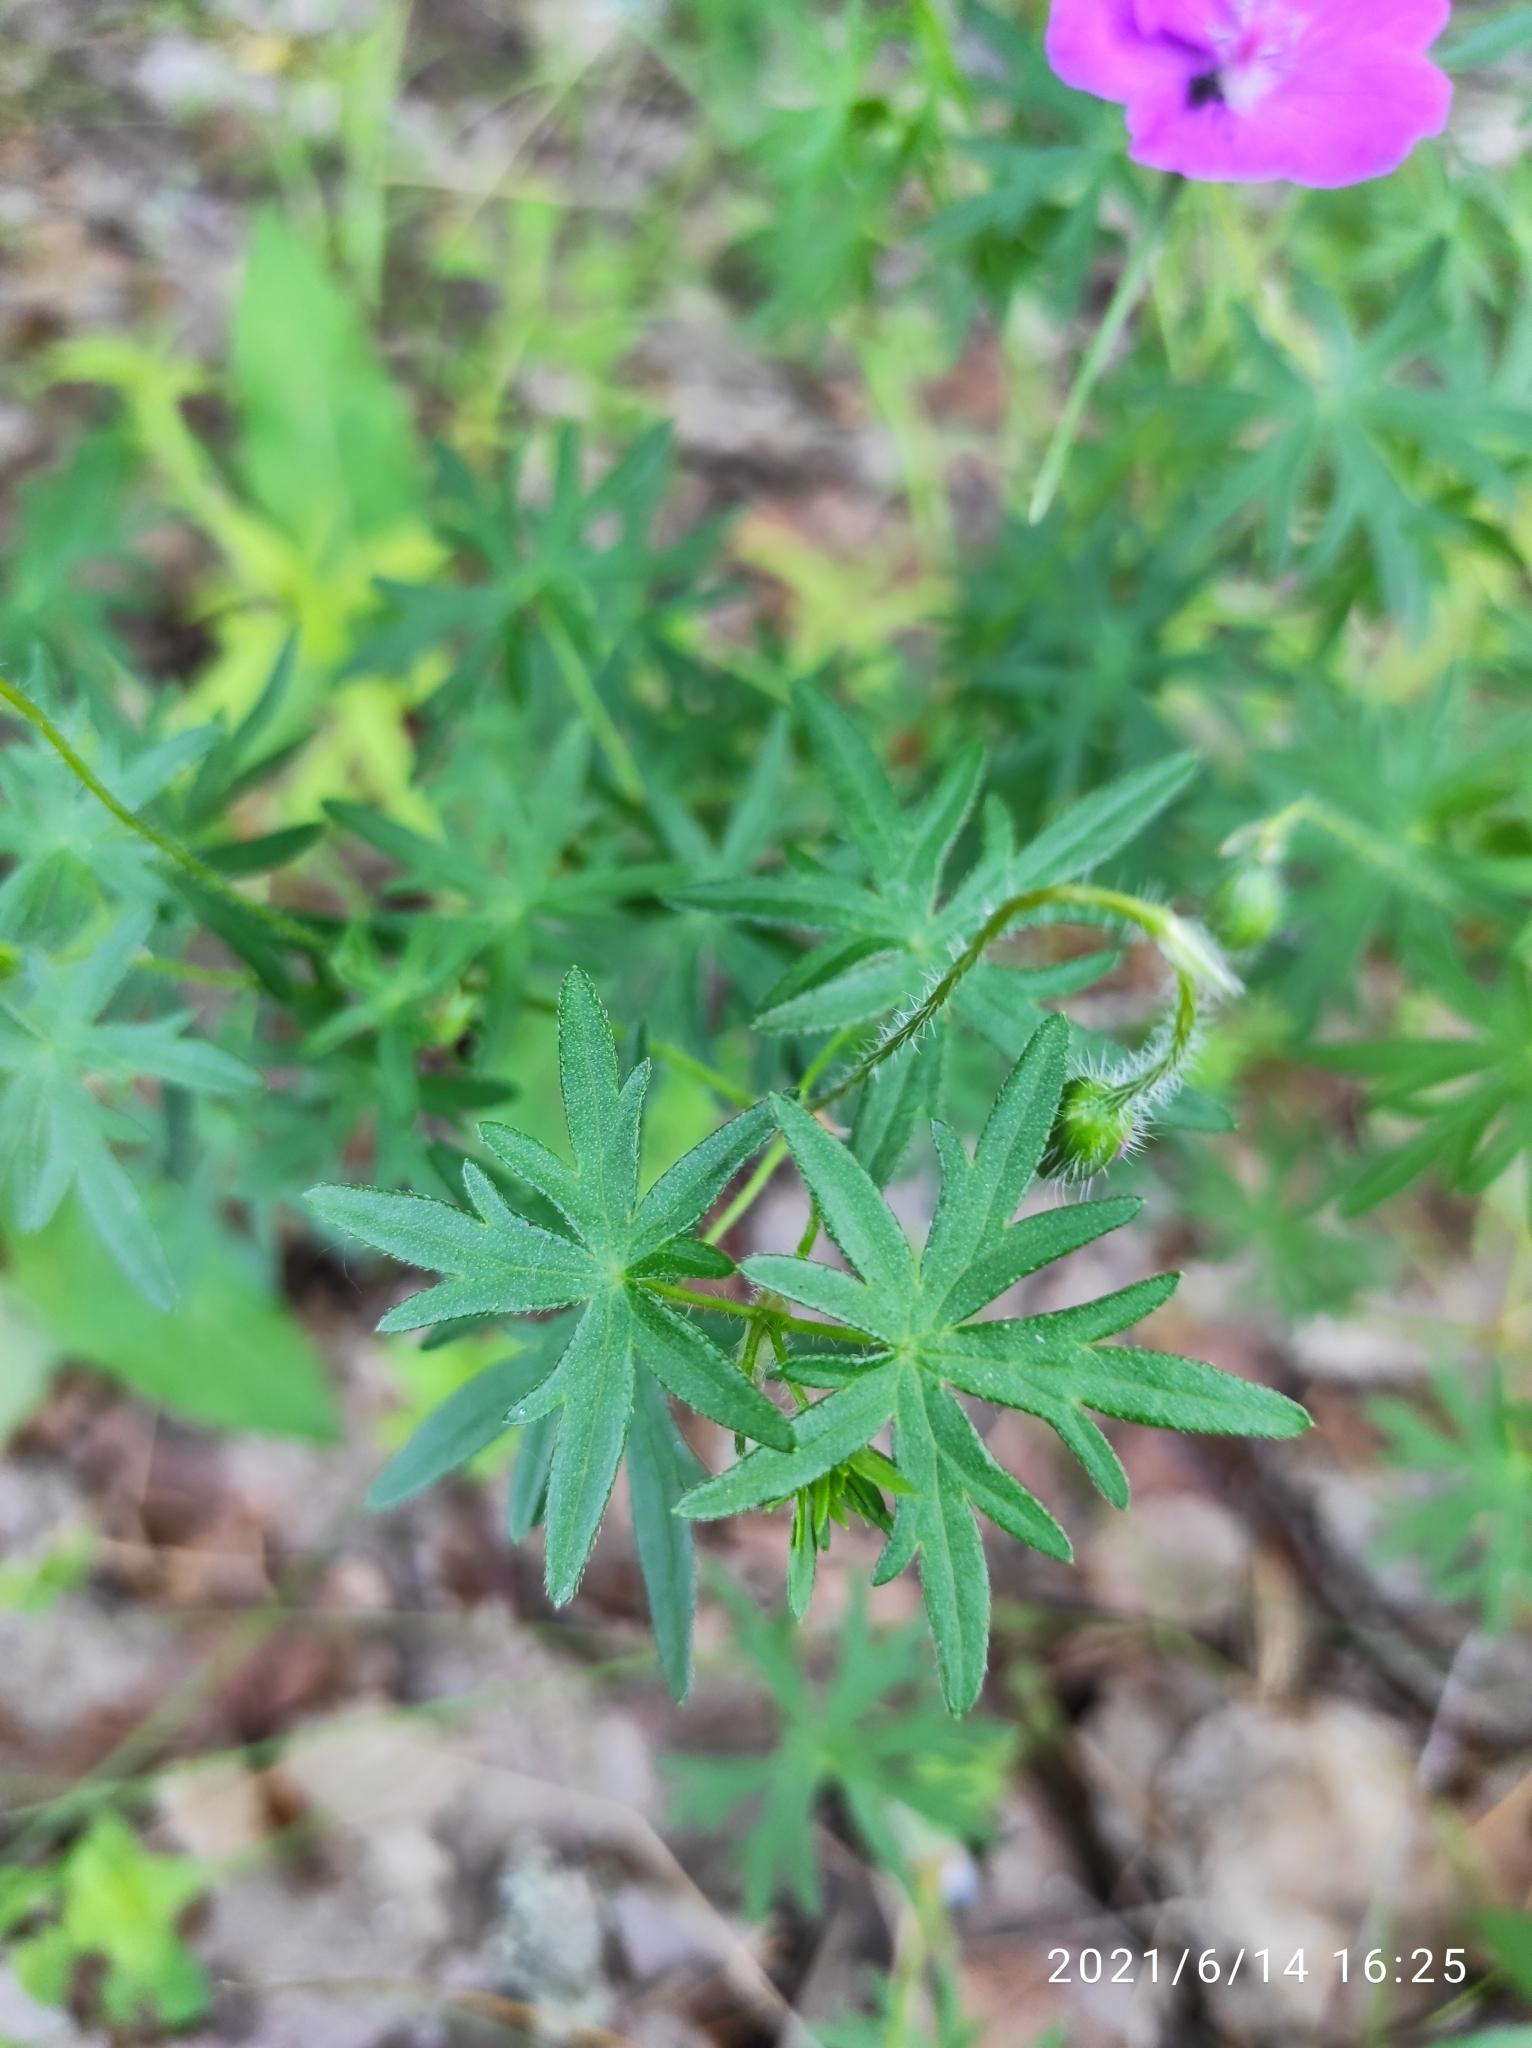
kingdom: Plantae
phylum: Tracheophyta
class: Magnoliopsida
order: Geraniales
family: Geraniaceae
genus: Geranium
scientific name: Geranium sanguineum
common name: Bloody crane's-bill
